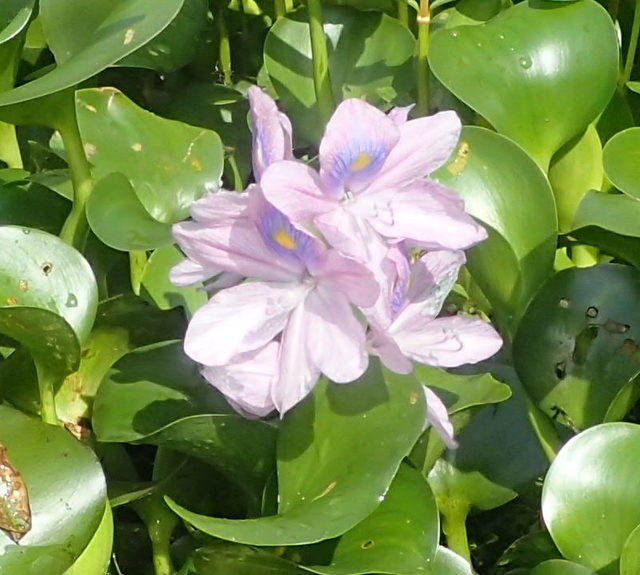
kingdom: Plantae
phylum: Tracheophyta
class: Liliopsida
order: Commelinales
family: Pontederiaceae
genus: Pontederia
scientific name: Pontederia crassipes
